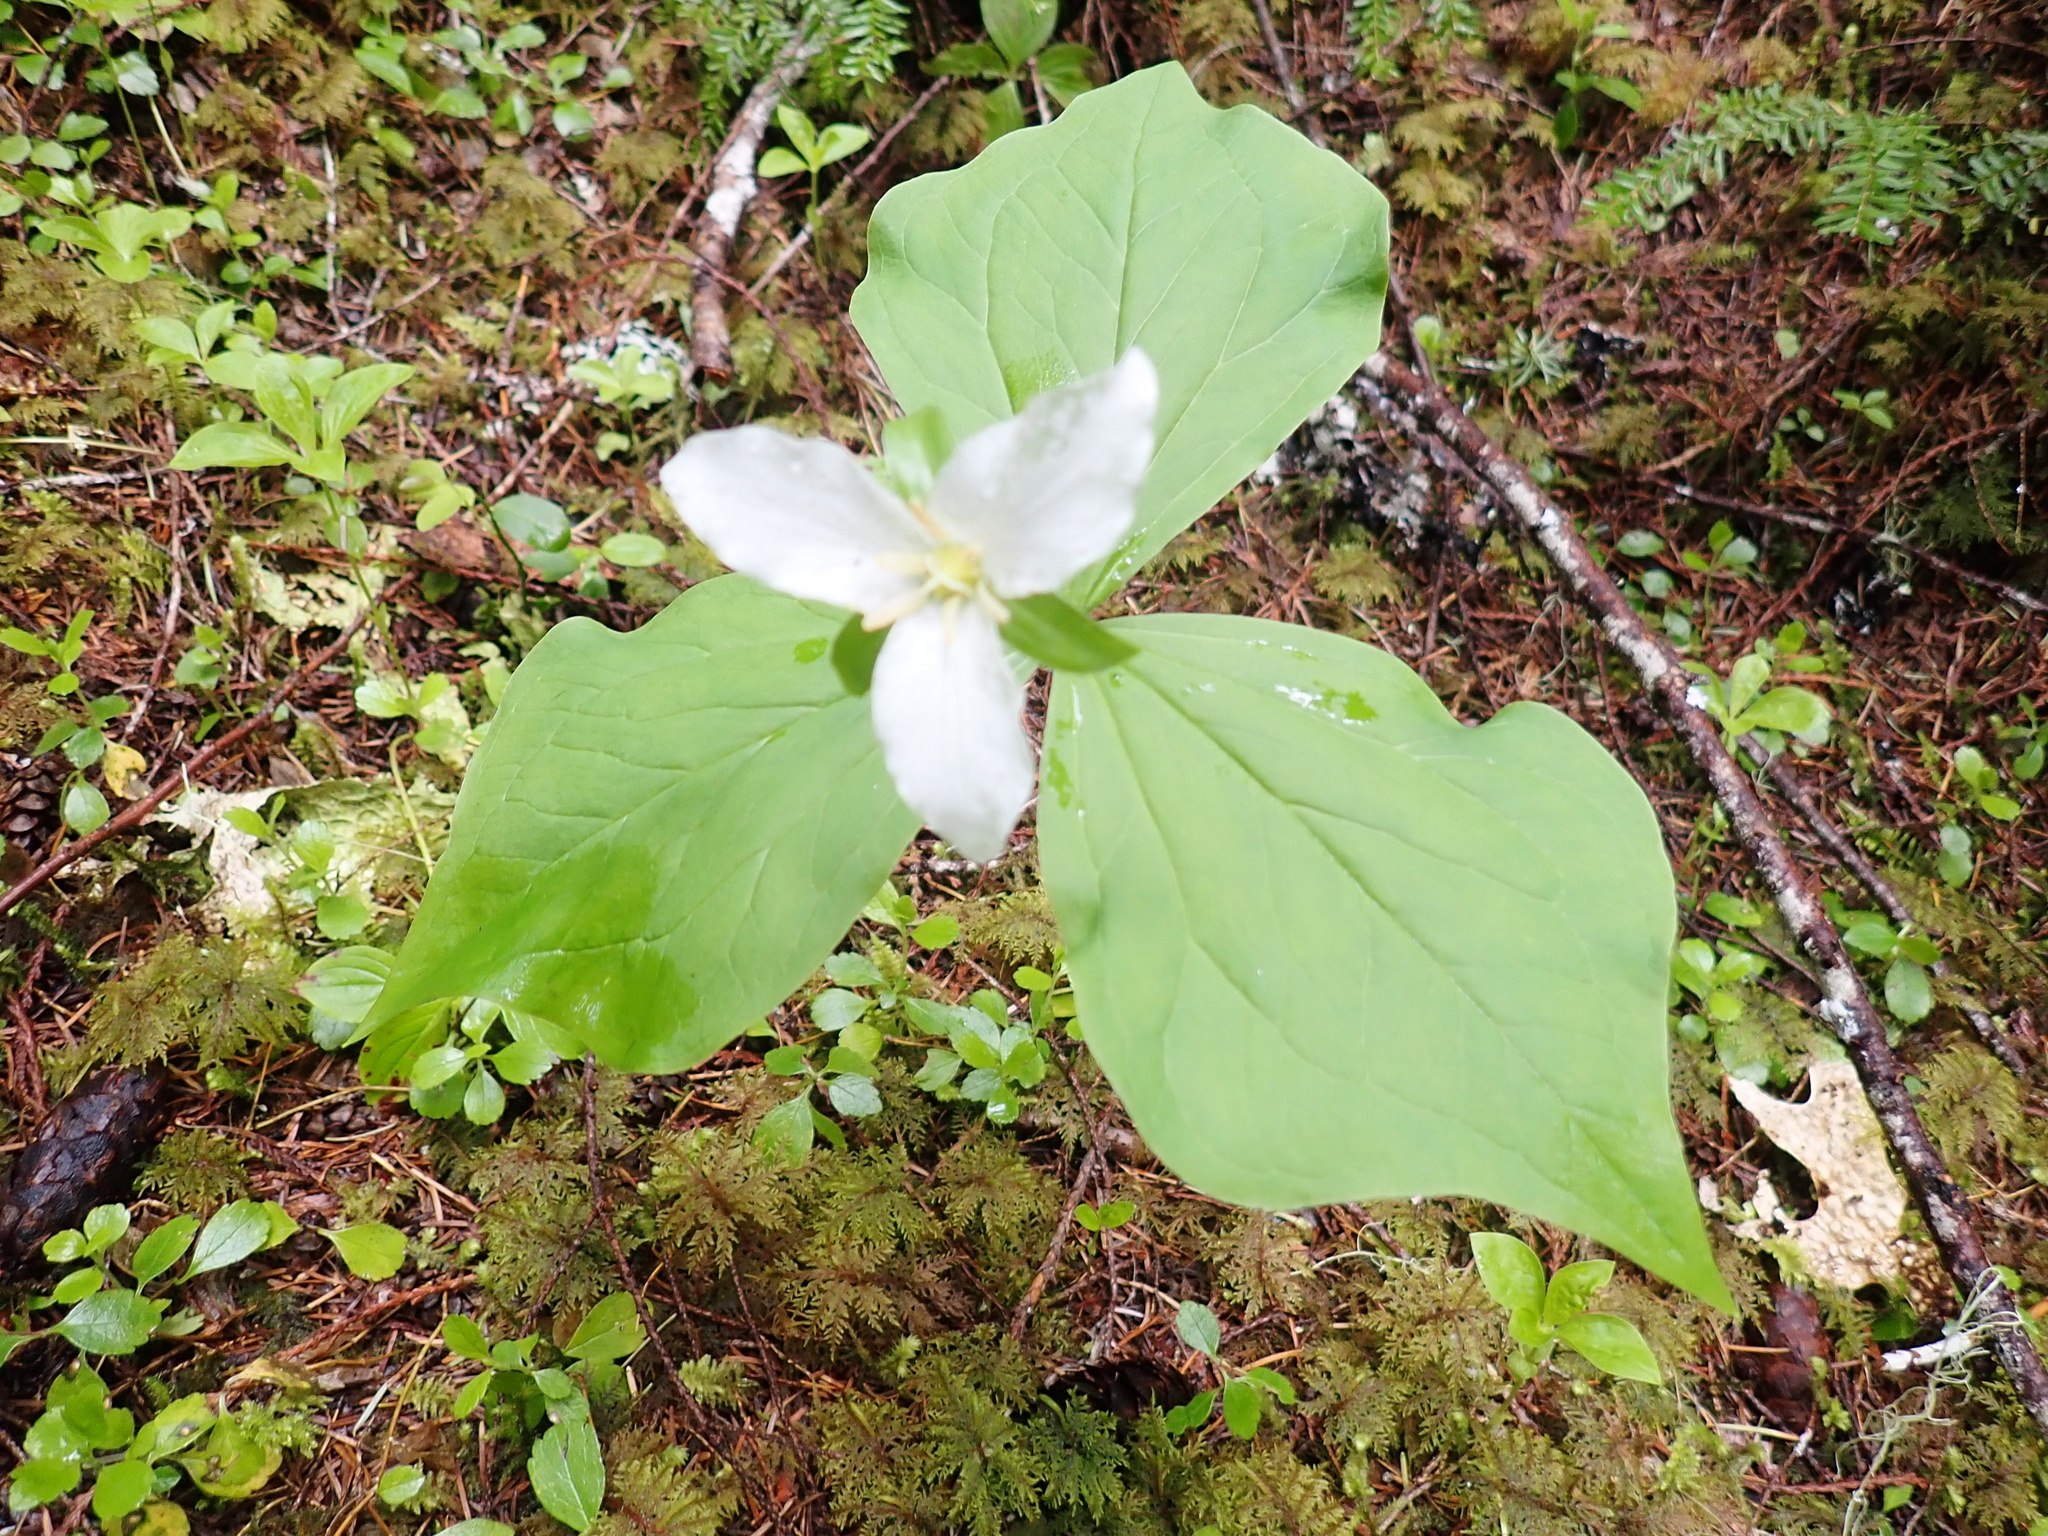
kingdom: Plantae
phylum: Tracheophyta
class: Liliopsida
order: Liliales
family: Melanthiaceae
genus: Trillium
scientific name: Trillium ovatum
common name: Pacific trillium
